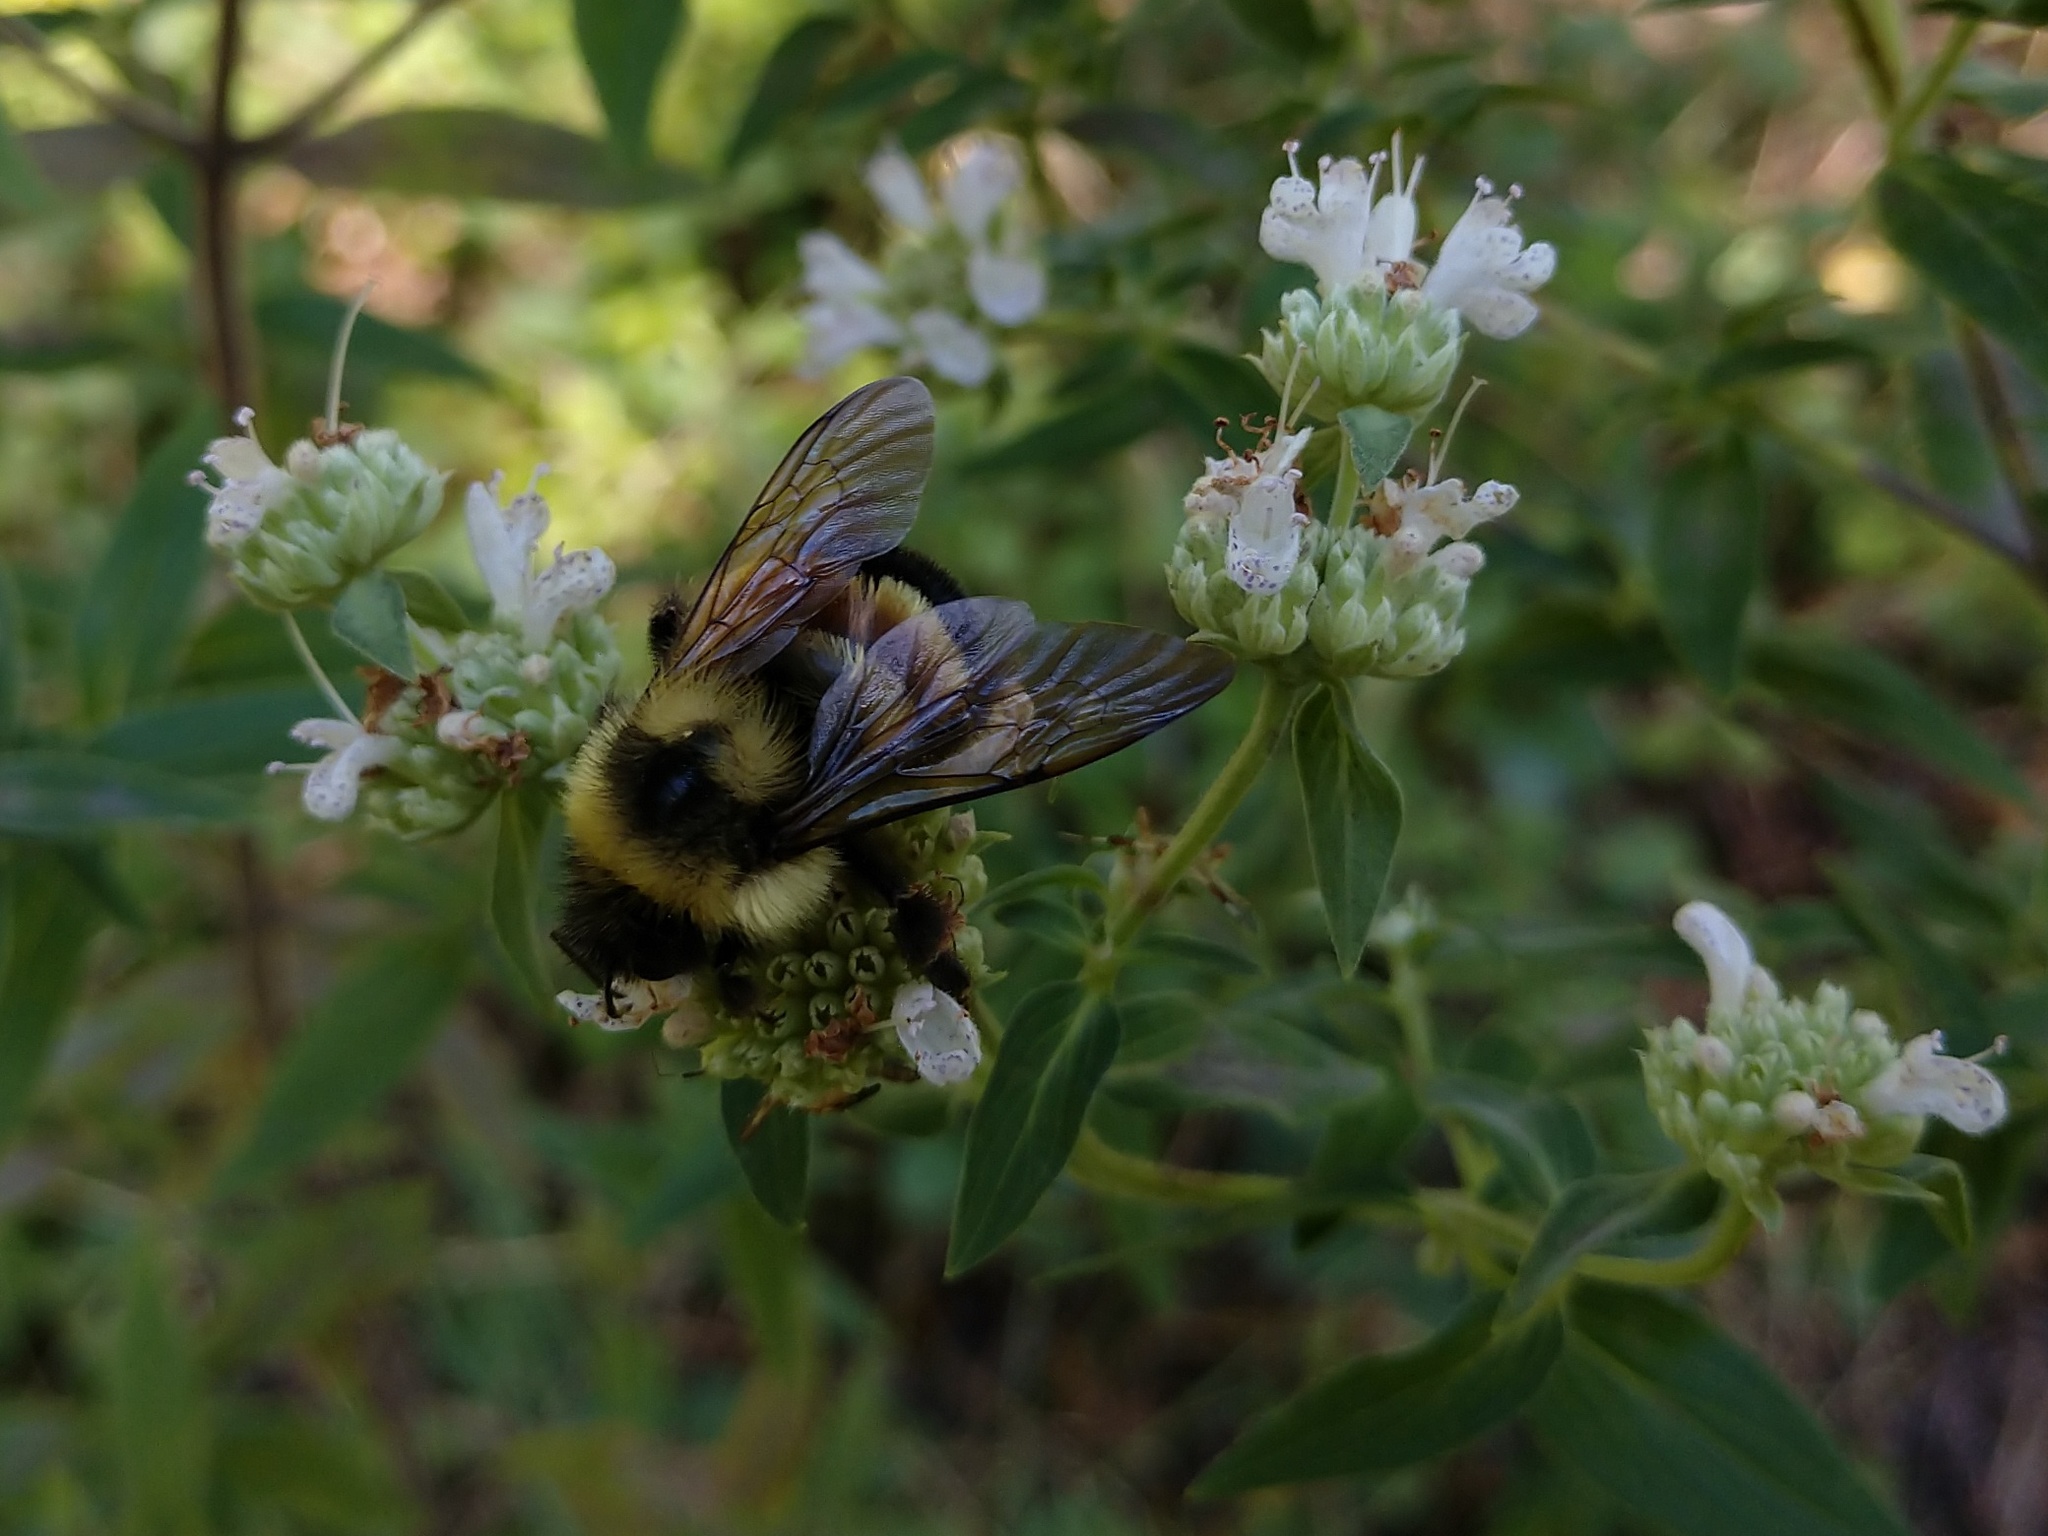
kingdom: Animalia
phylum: Arthropoda
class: Insecta
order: Hymenoptera
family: Apidae
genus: Bombus
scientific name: Bombus affinis
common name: Rusty patched bumble bee
